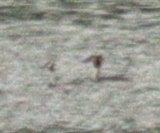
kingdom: Animalia
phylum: Chordata
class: Aves
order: Podicipediformes
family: Podicipedidae
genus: Podiceps
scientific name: Podiceps cristatus
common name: Great crested grebe
